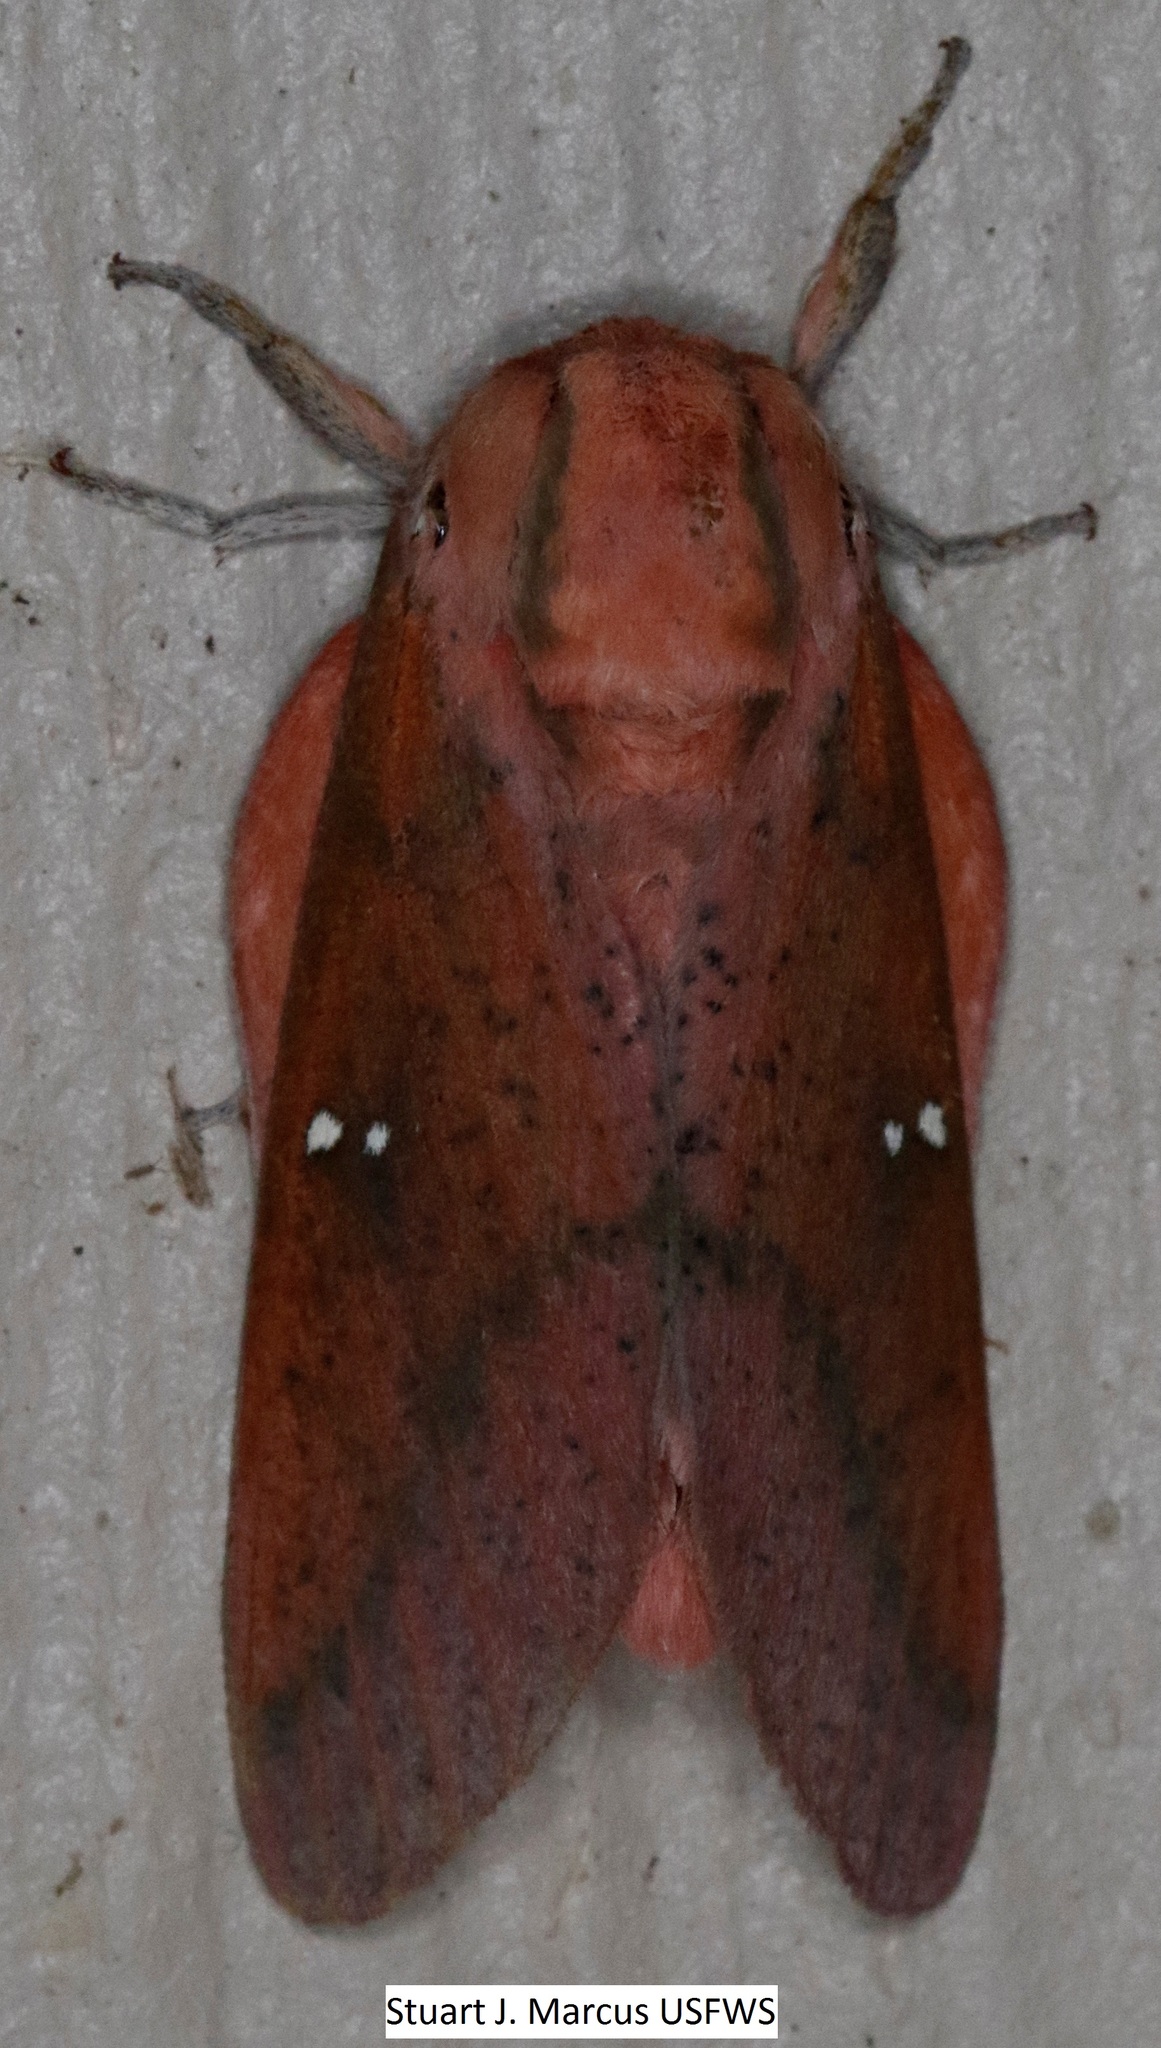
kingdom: Animalia
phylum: Arthropoda
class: Insecta
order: Lepidoptera
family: Saturniidae
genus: Syssphinx
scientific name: Syssphinx bicolor
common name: Honey locust moth
